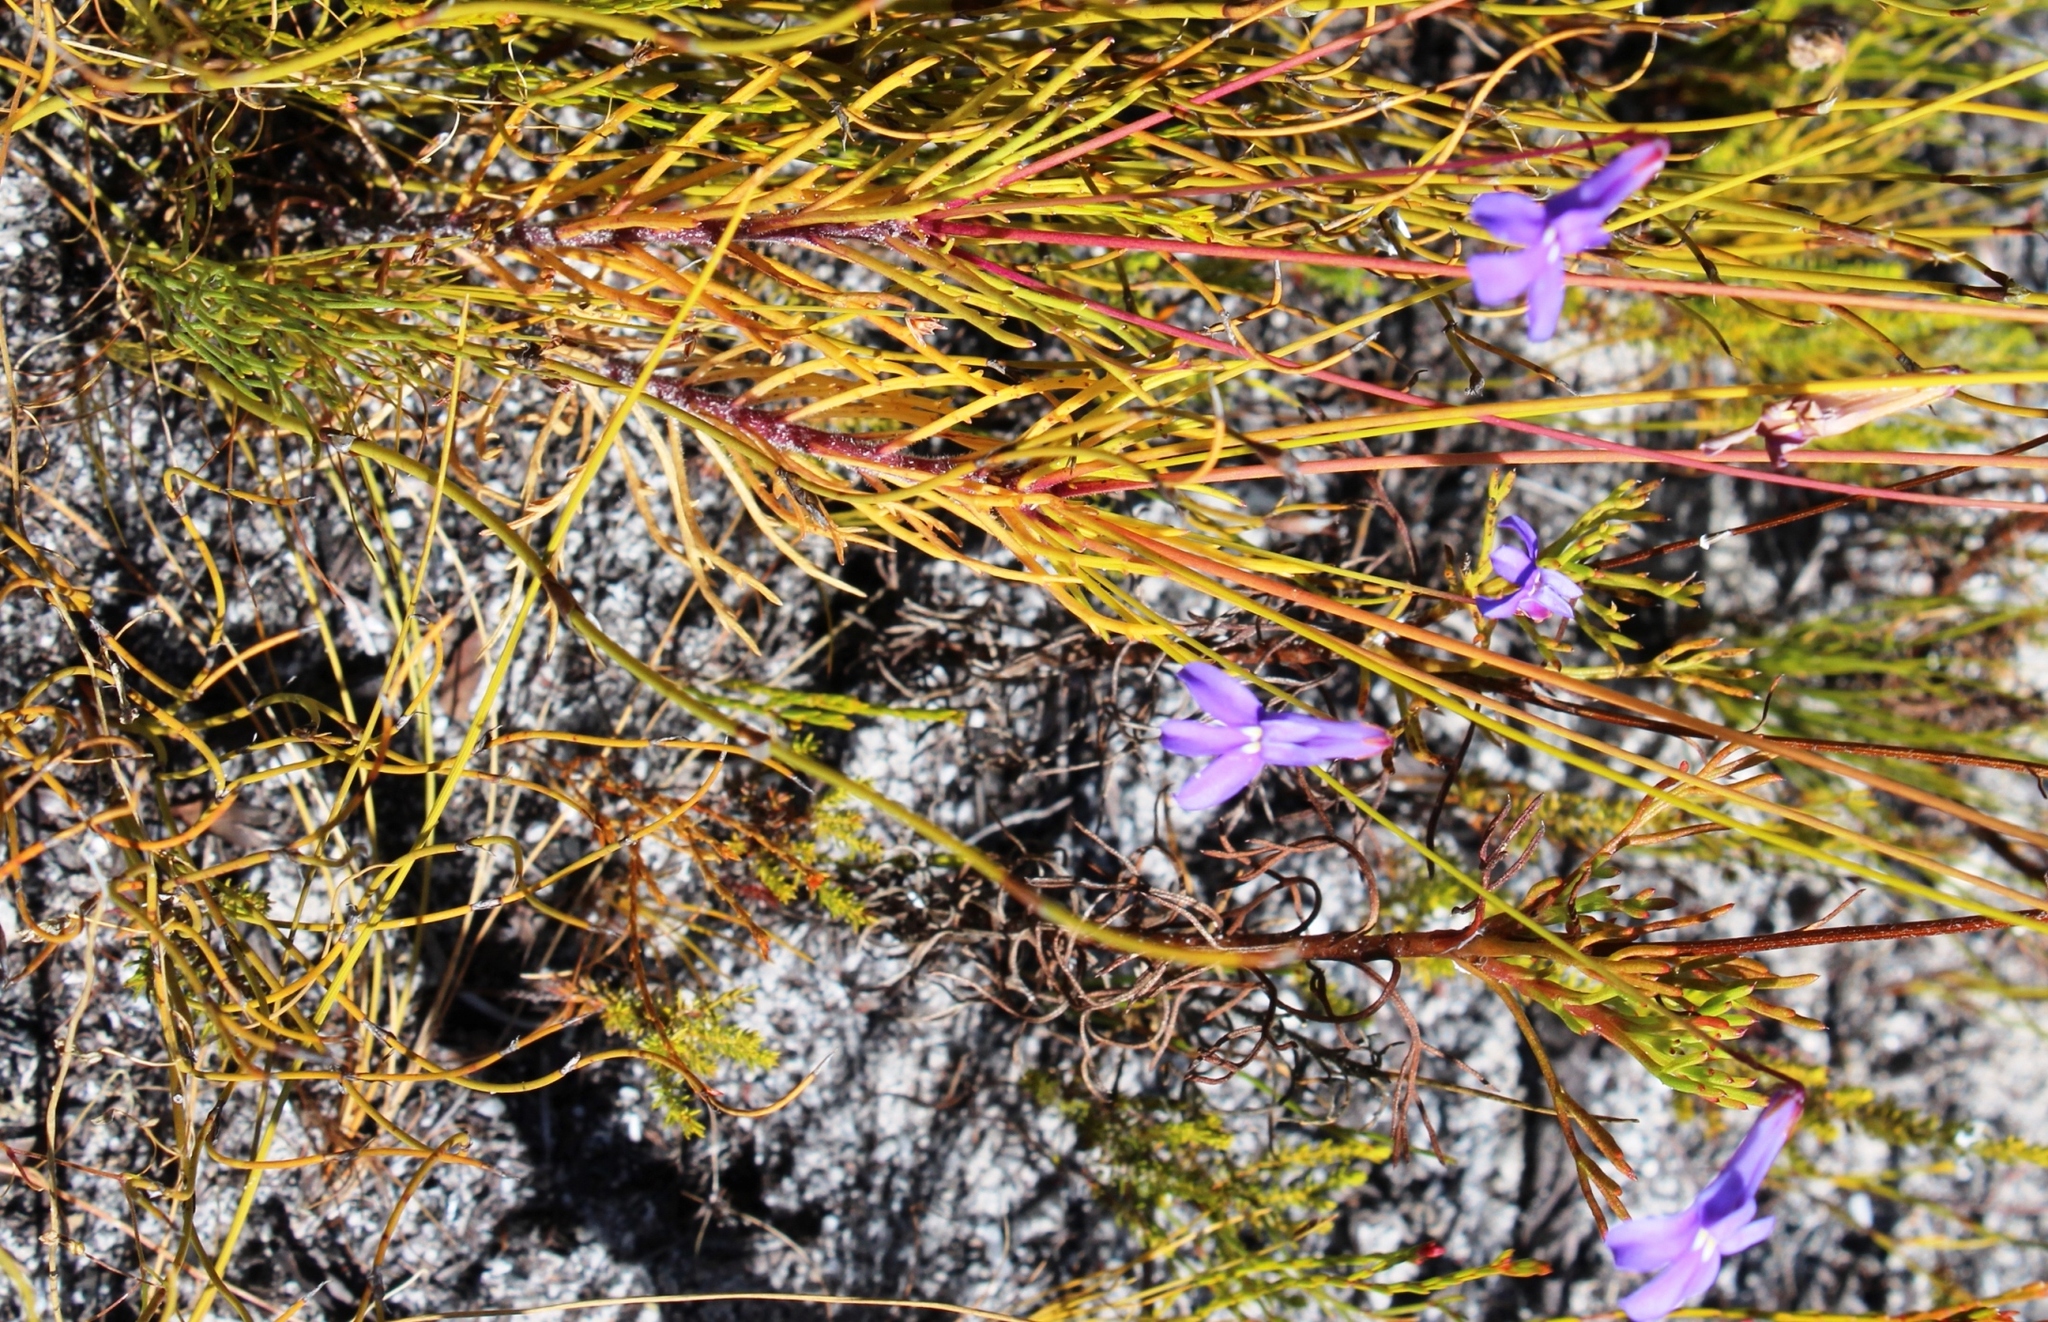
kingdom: Plantae
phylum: Tracheophyta
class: Magnoliopsida
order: Asterales
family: Campanulaceae
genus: Lobelia
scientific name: Lobelia coronopifolia
